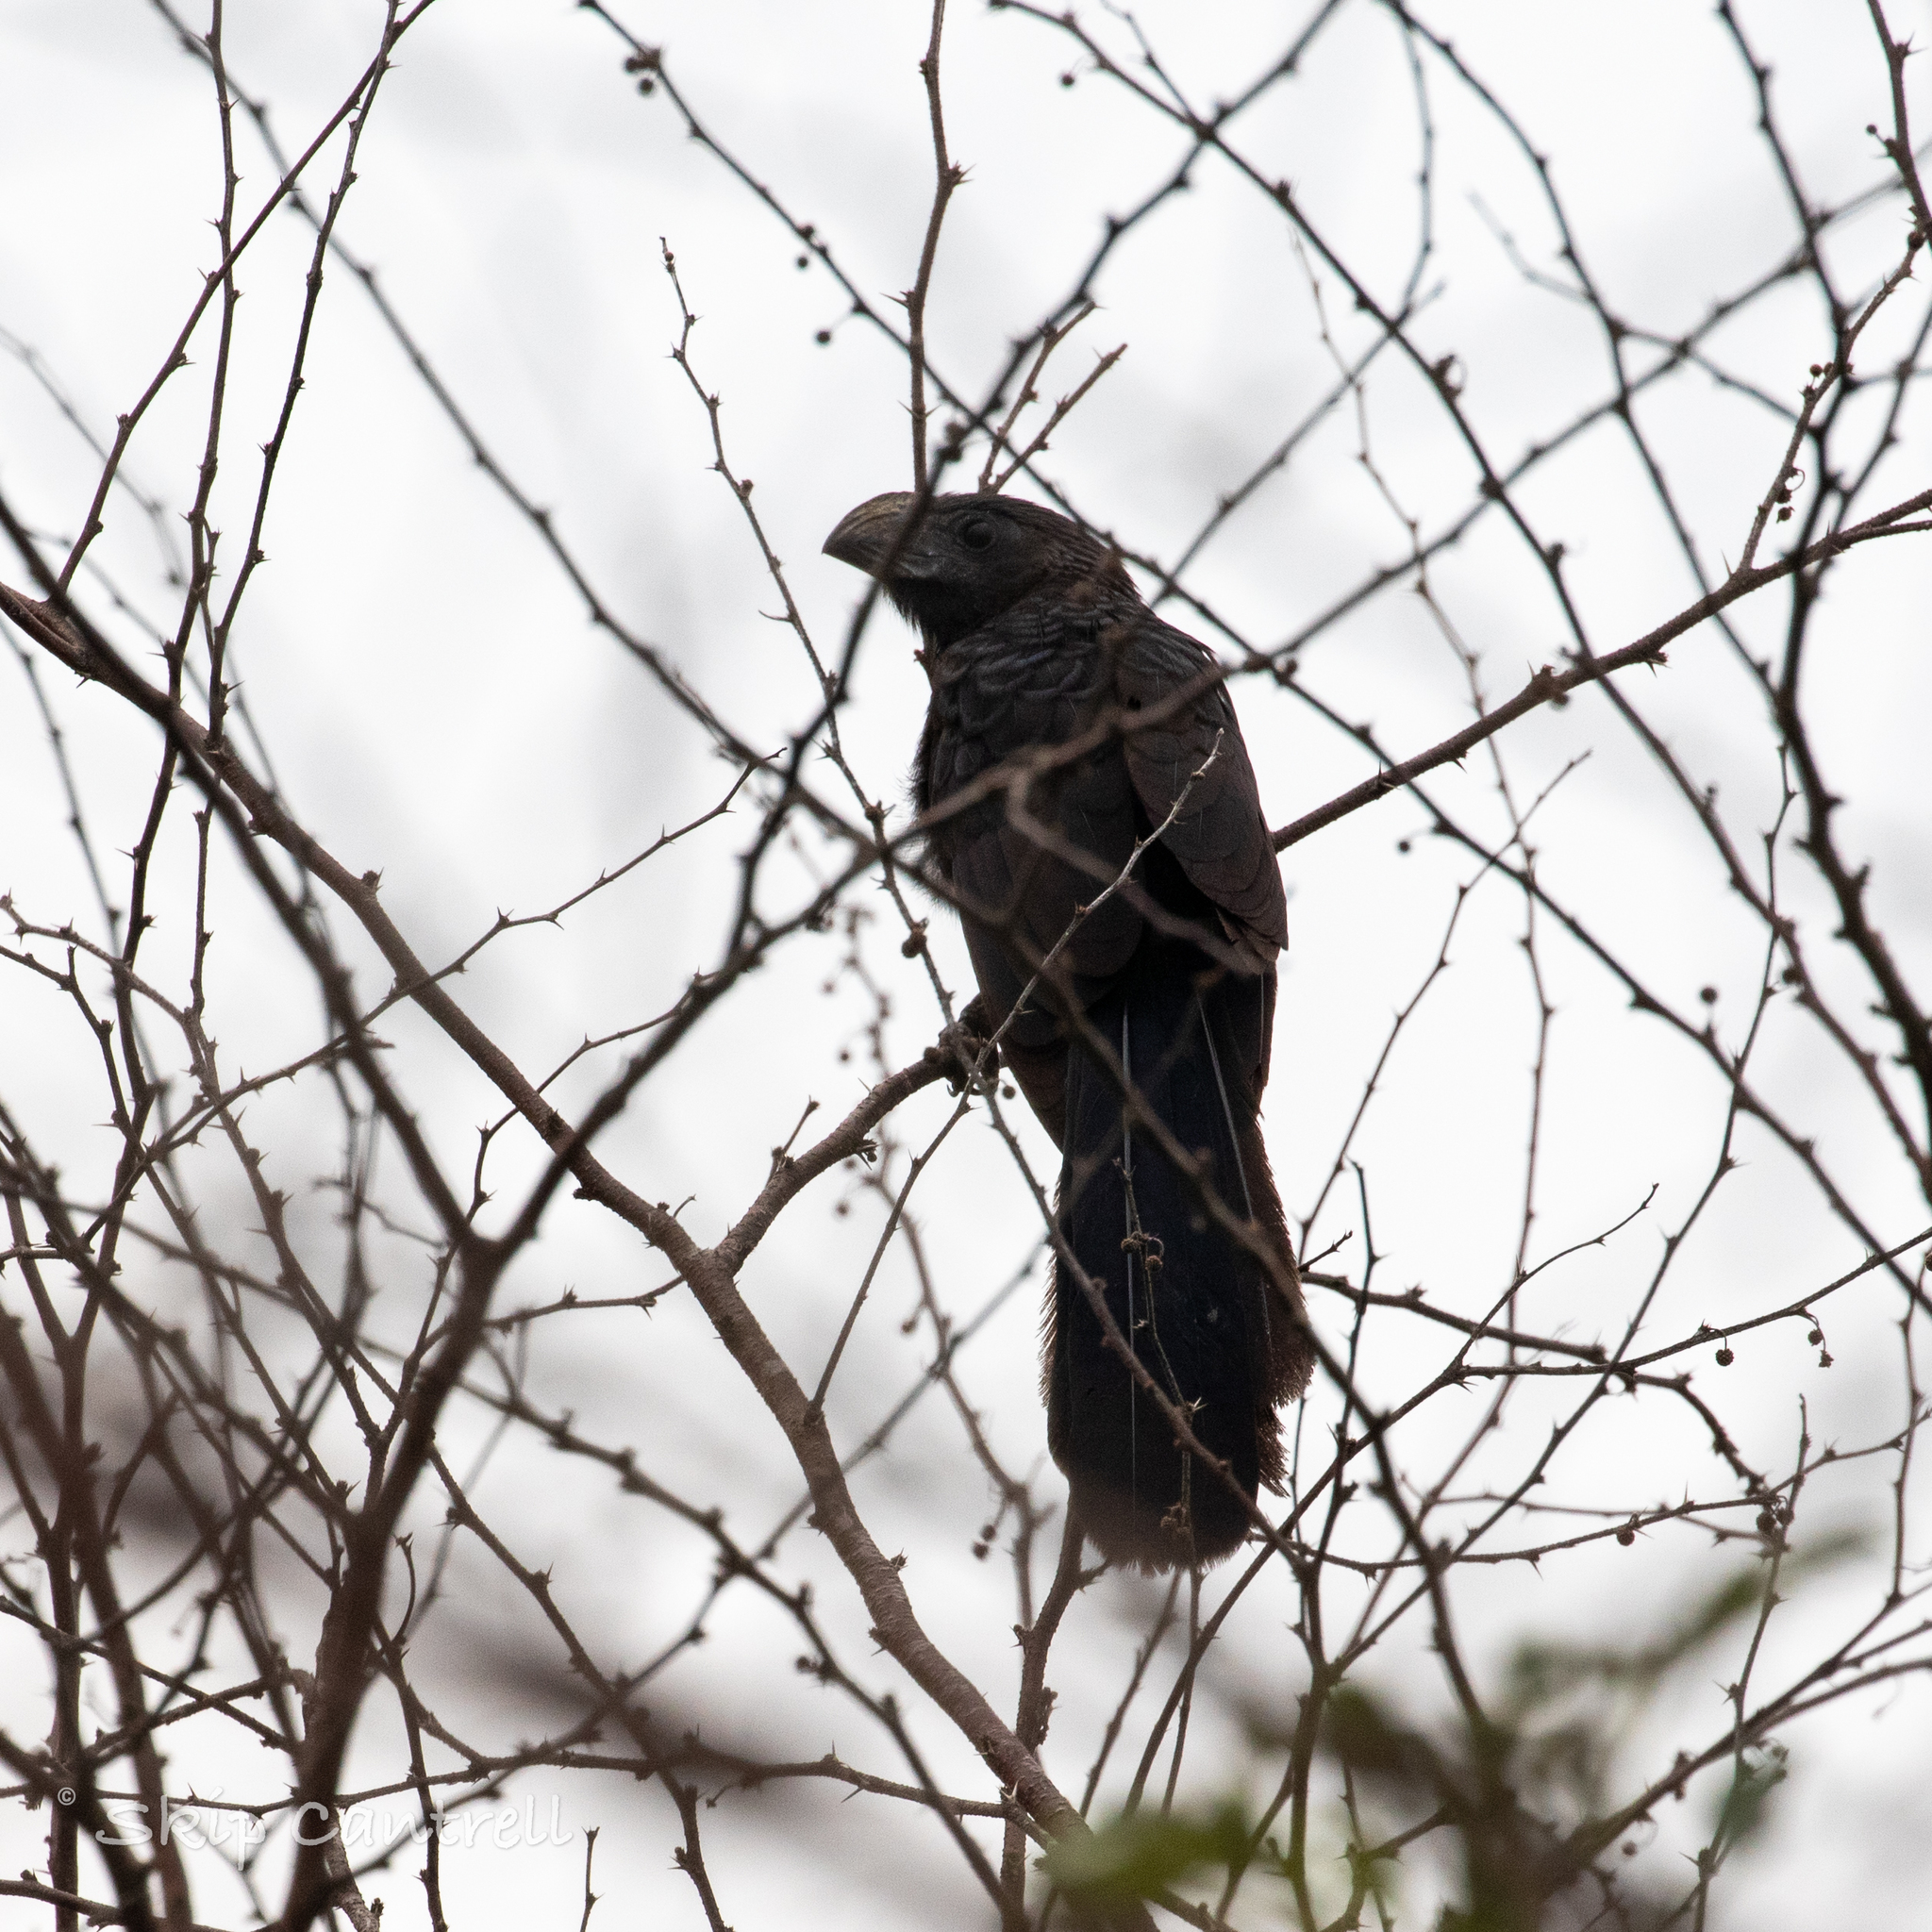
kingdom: Animalia
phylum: Chordata
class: Aves
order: Cuculiformes
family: Cuculidae
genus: Crotophaga
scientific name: Crotophaga sulcirostris
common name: Groove-billed ani
